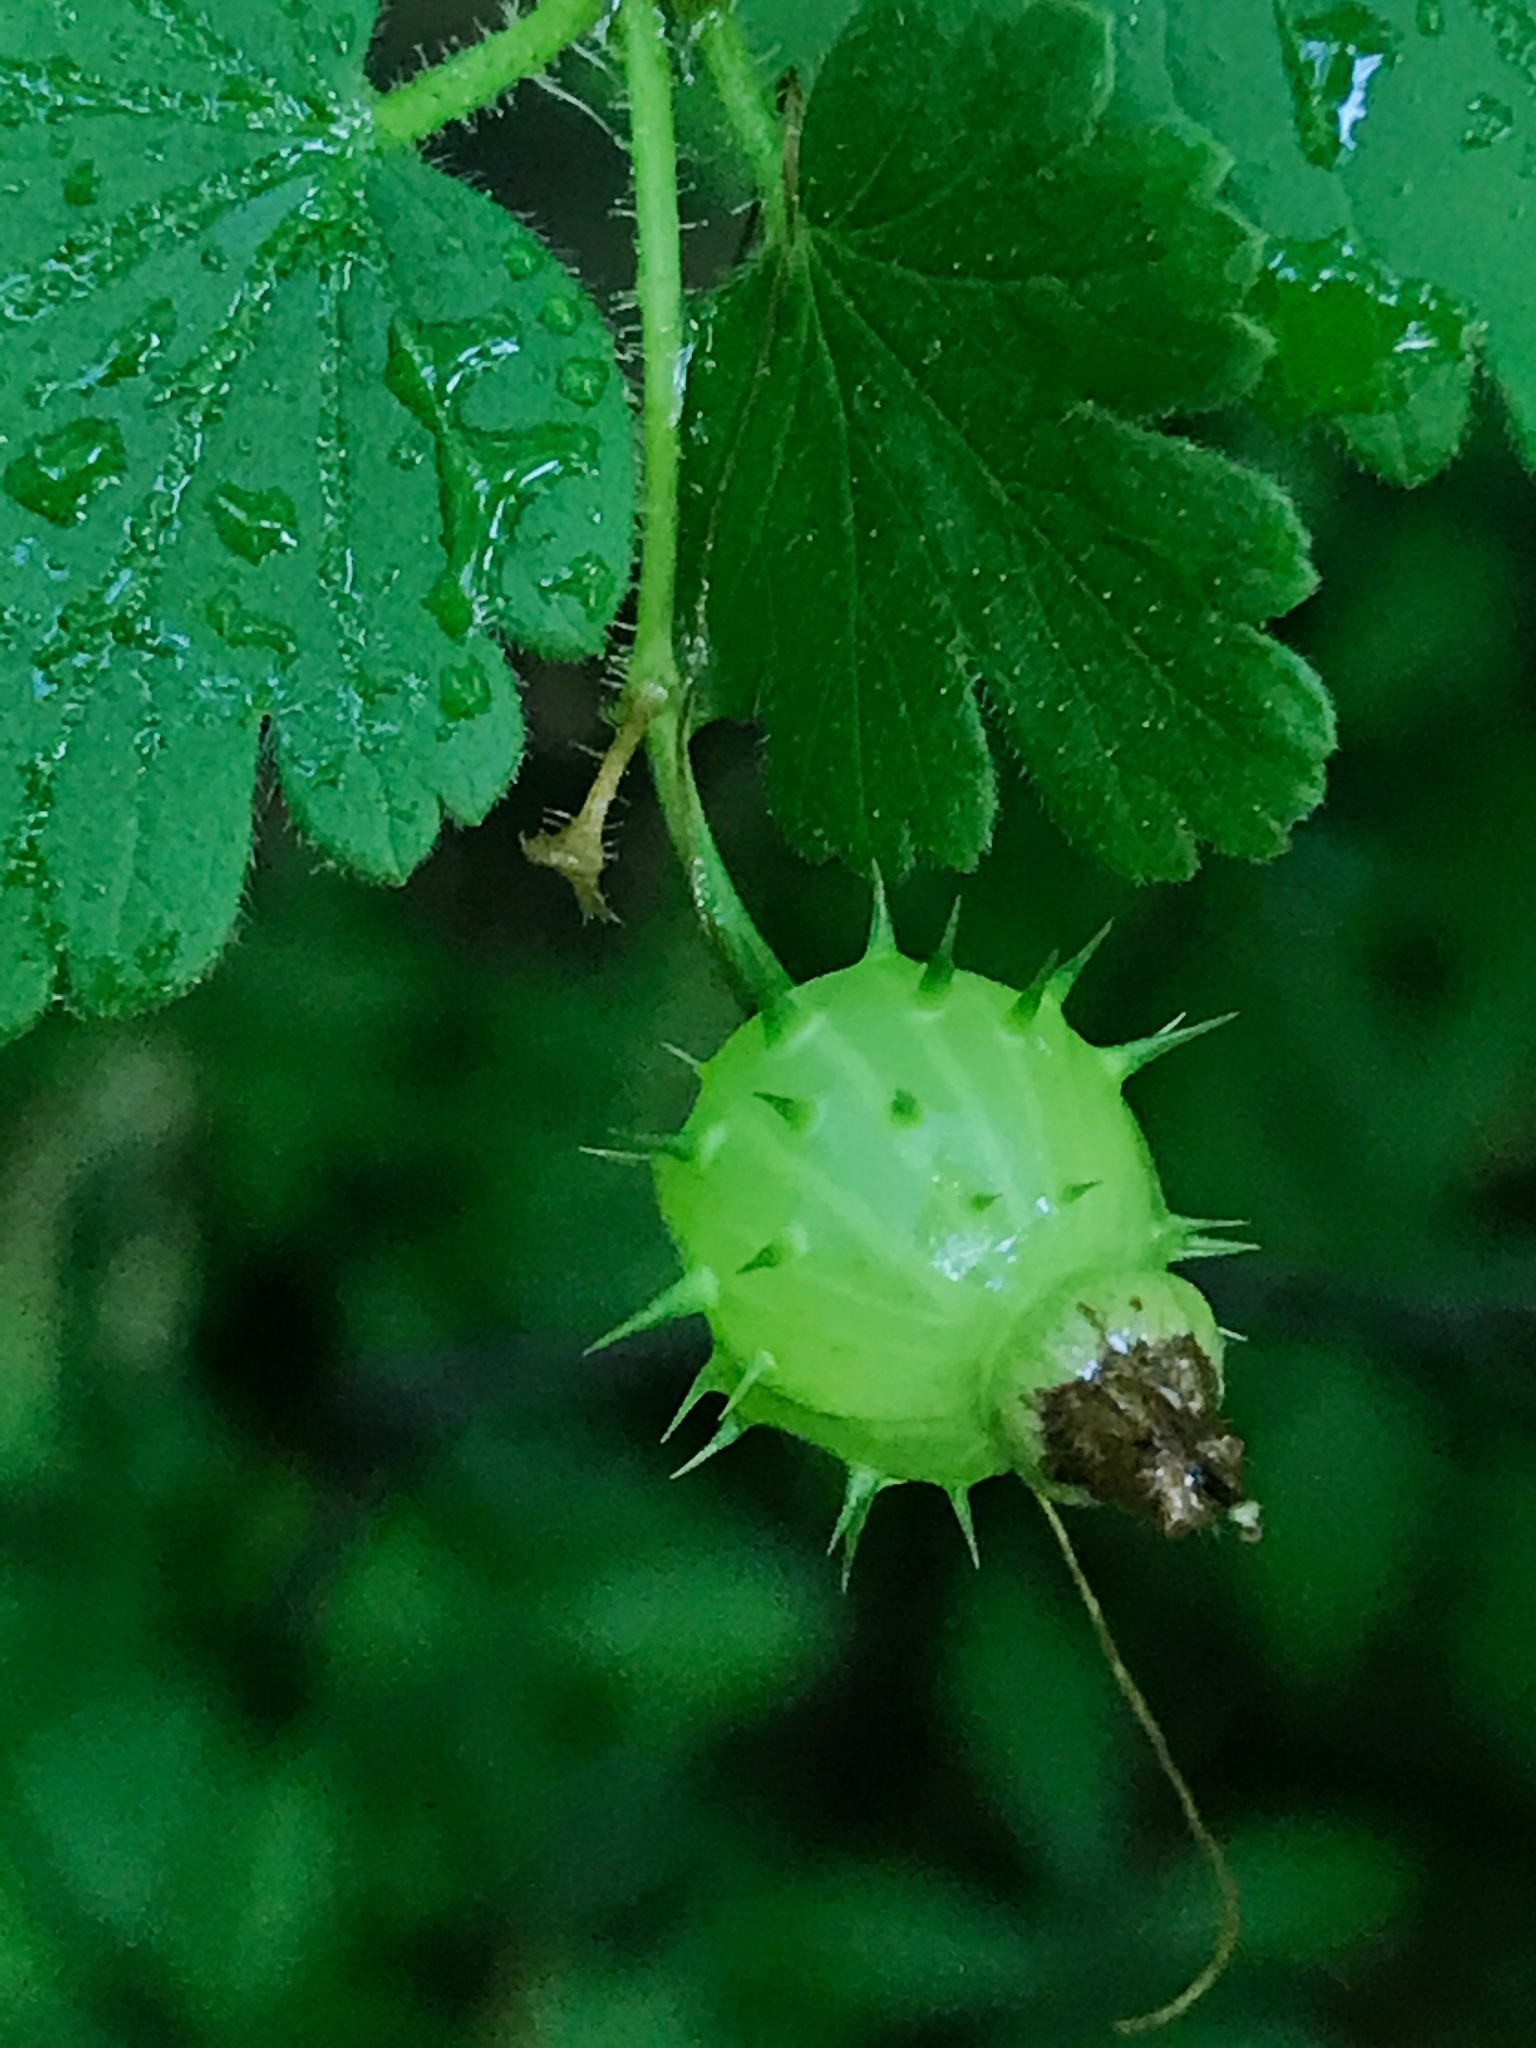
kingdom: Plantae
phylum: Tracheophyta
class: Magnoliopsida
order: Saxifragales
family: Grossulariaceae
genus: Ribes
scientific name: Ribes cynosbati
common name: American gooseberry
